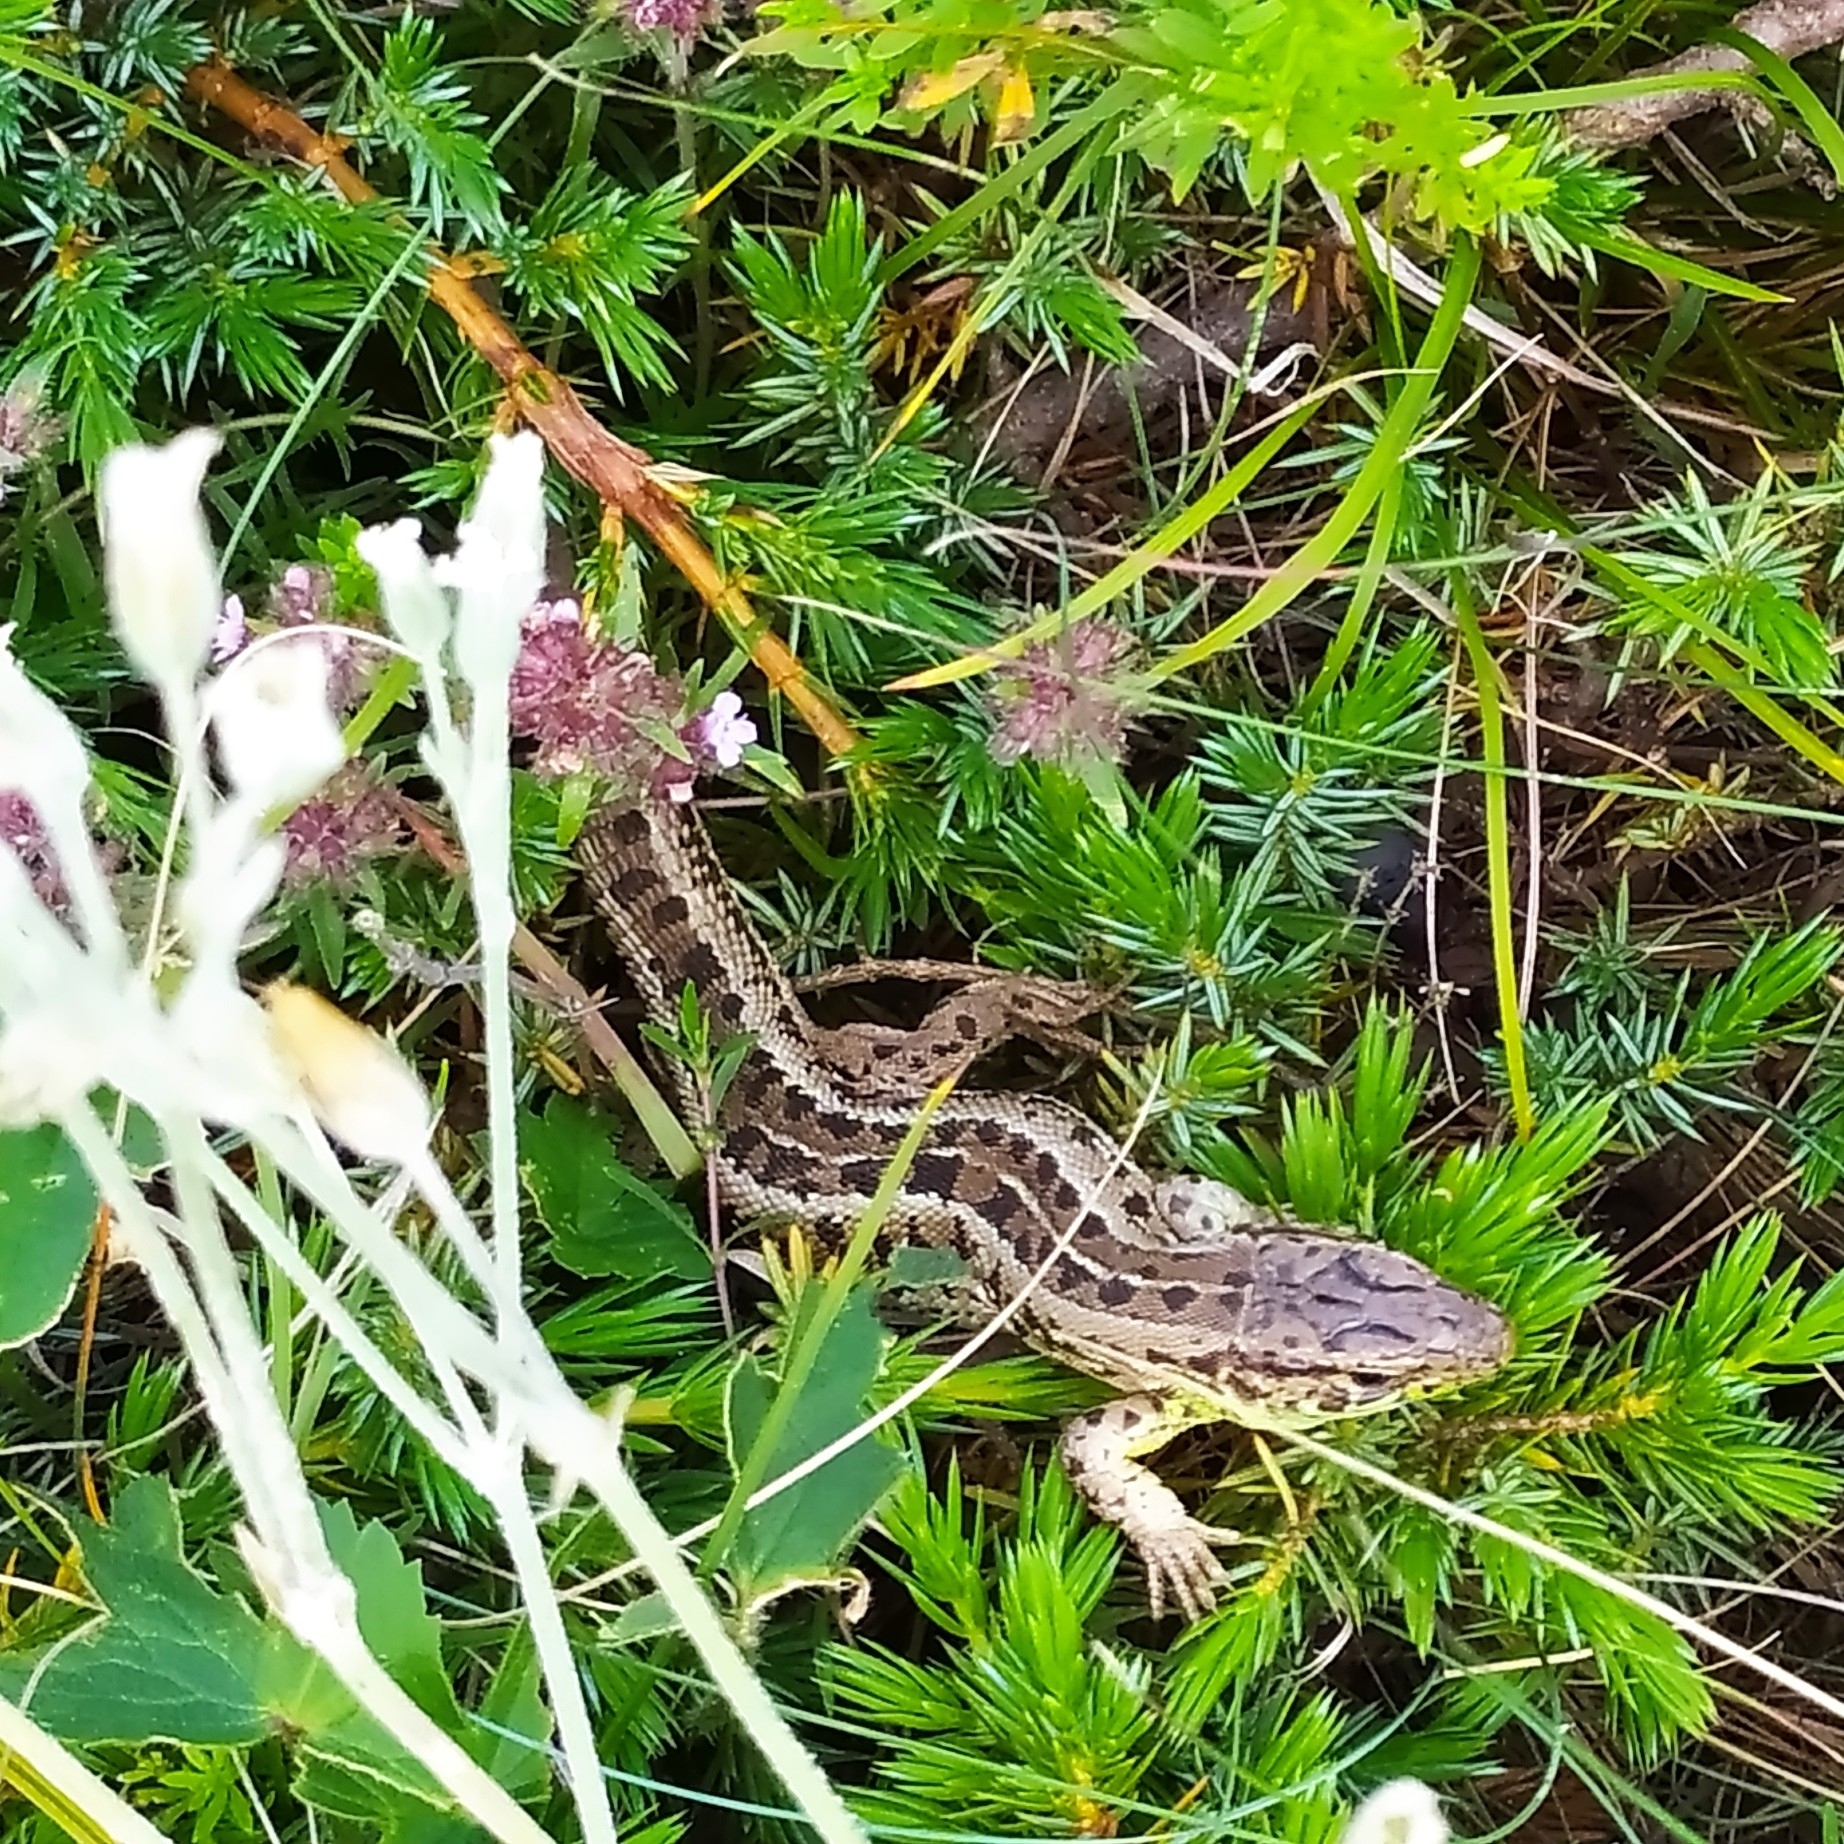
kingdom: Animalia
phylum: Chordata
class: Squamata
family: Lacertidae
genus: Lacerta
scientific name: Lacerta agilis
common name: Sand lizard
